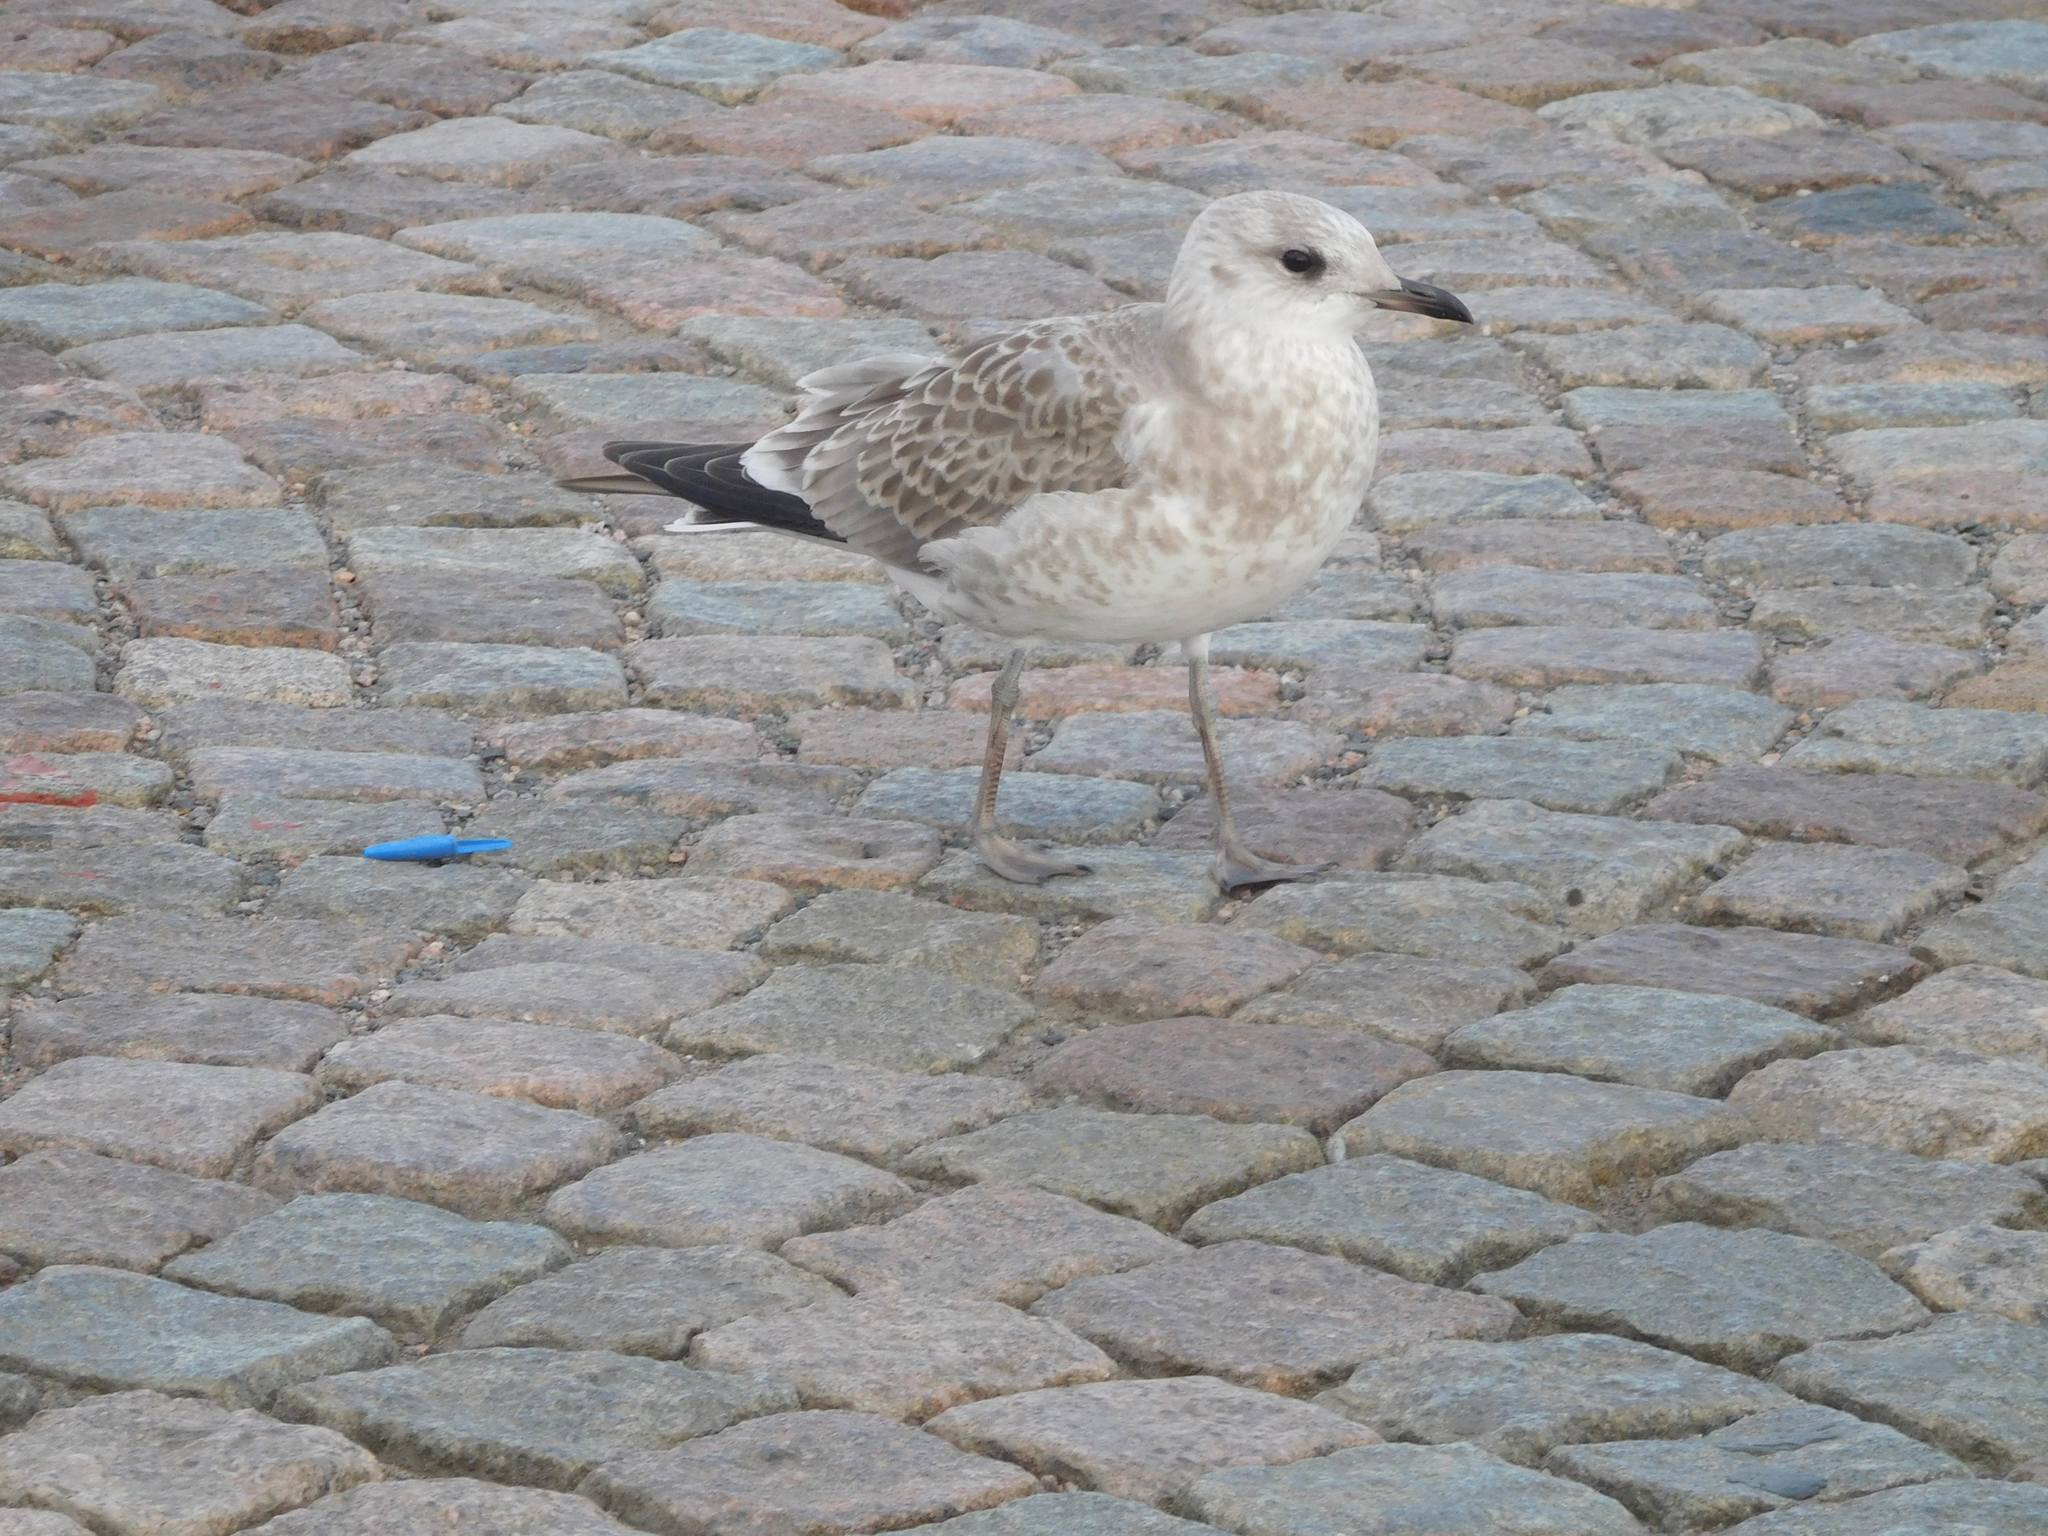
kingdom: Animalia
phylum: Chordata
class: Aves
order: Charadriiformes
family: Laridae
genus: Larus
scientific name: Larus canus
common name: Mew gull
